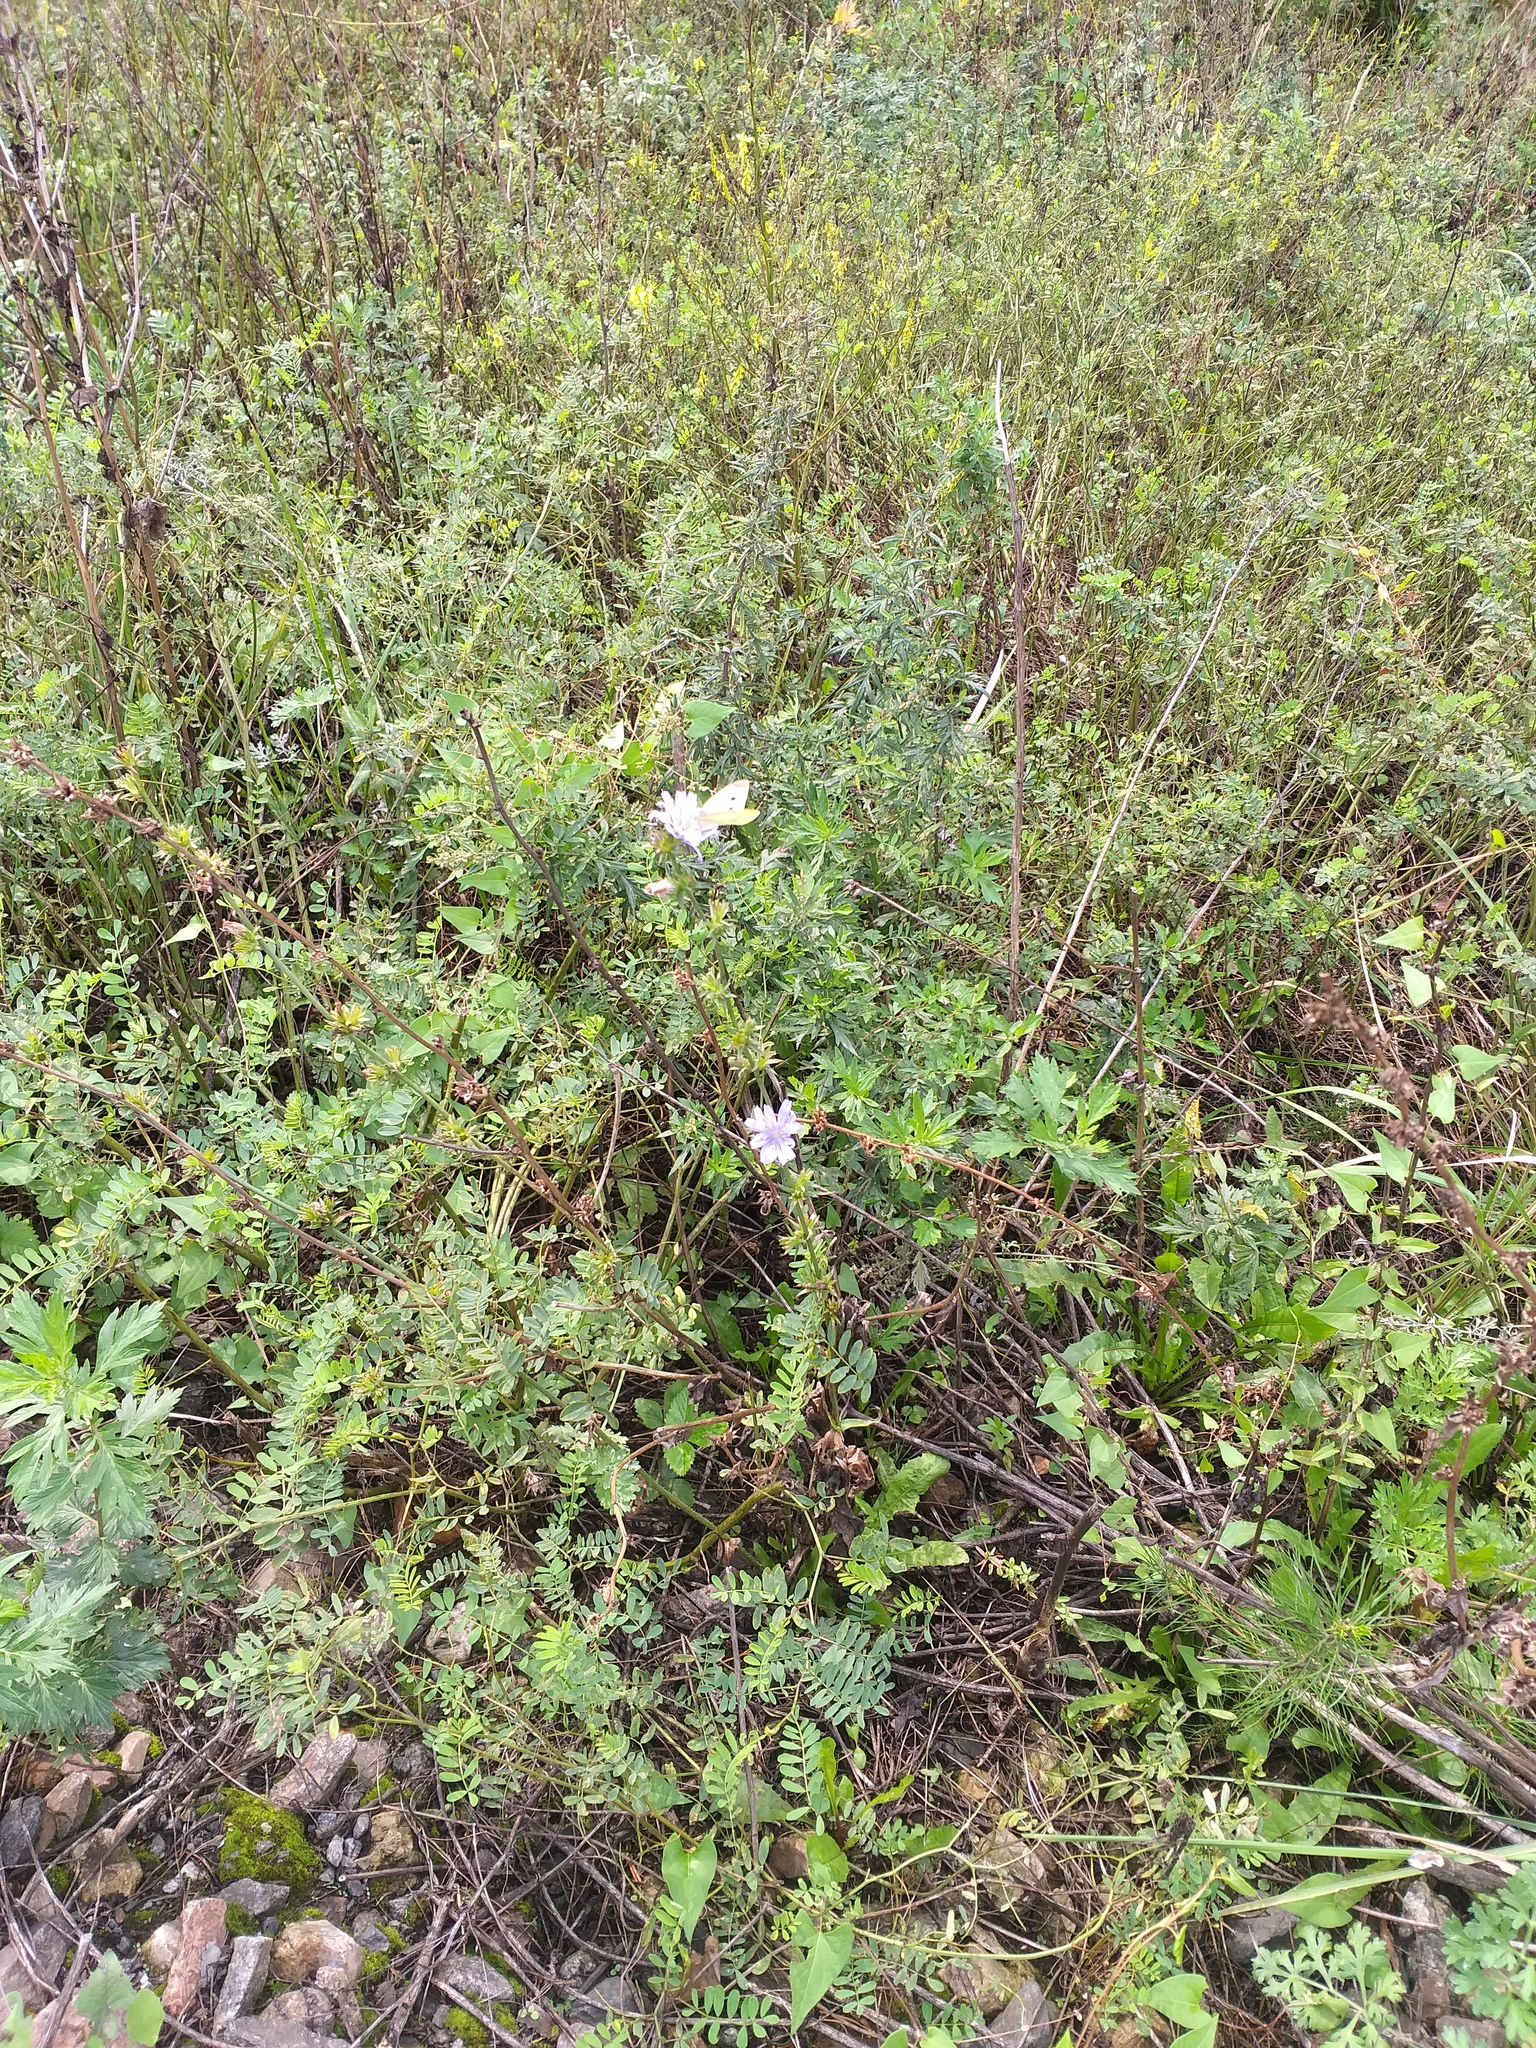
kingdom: Plantae
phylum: Tracheophyta
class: Magnoliopsida
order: Asterales
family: Asteraceae
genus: Cichorium
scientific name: Cichorium intybus
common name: Chicory
